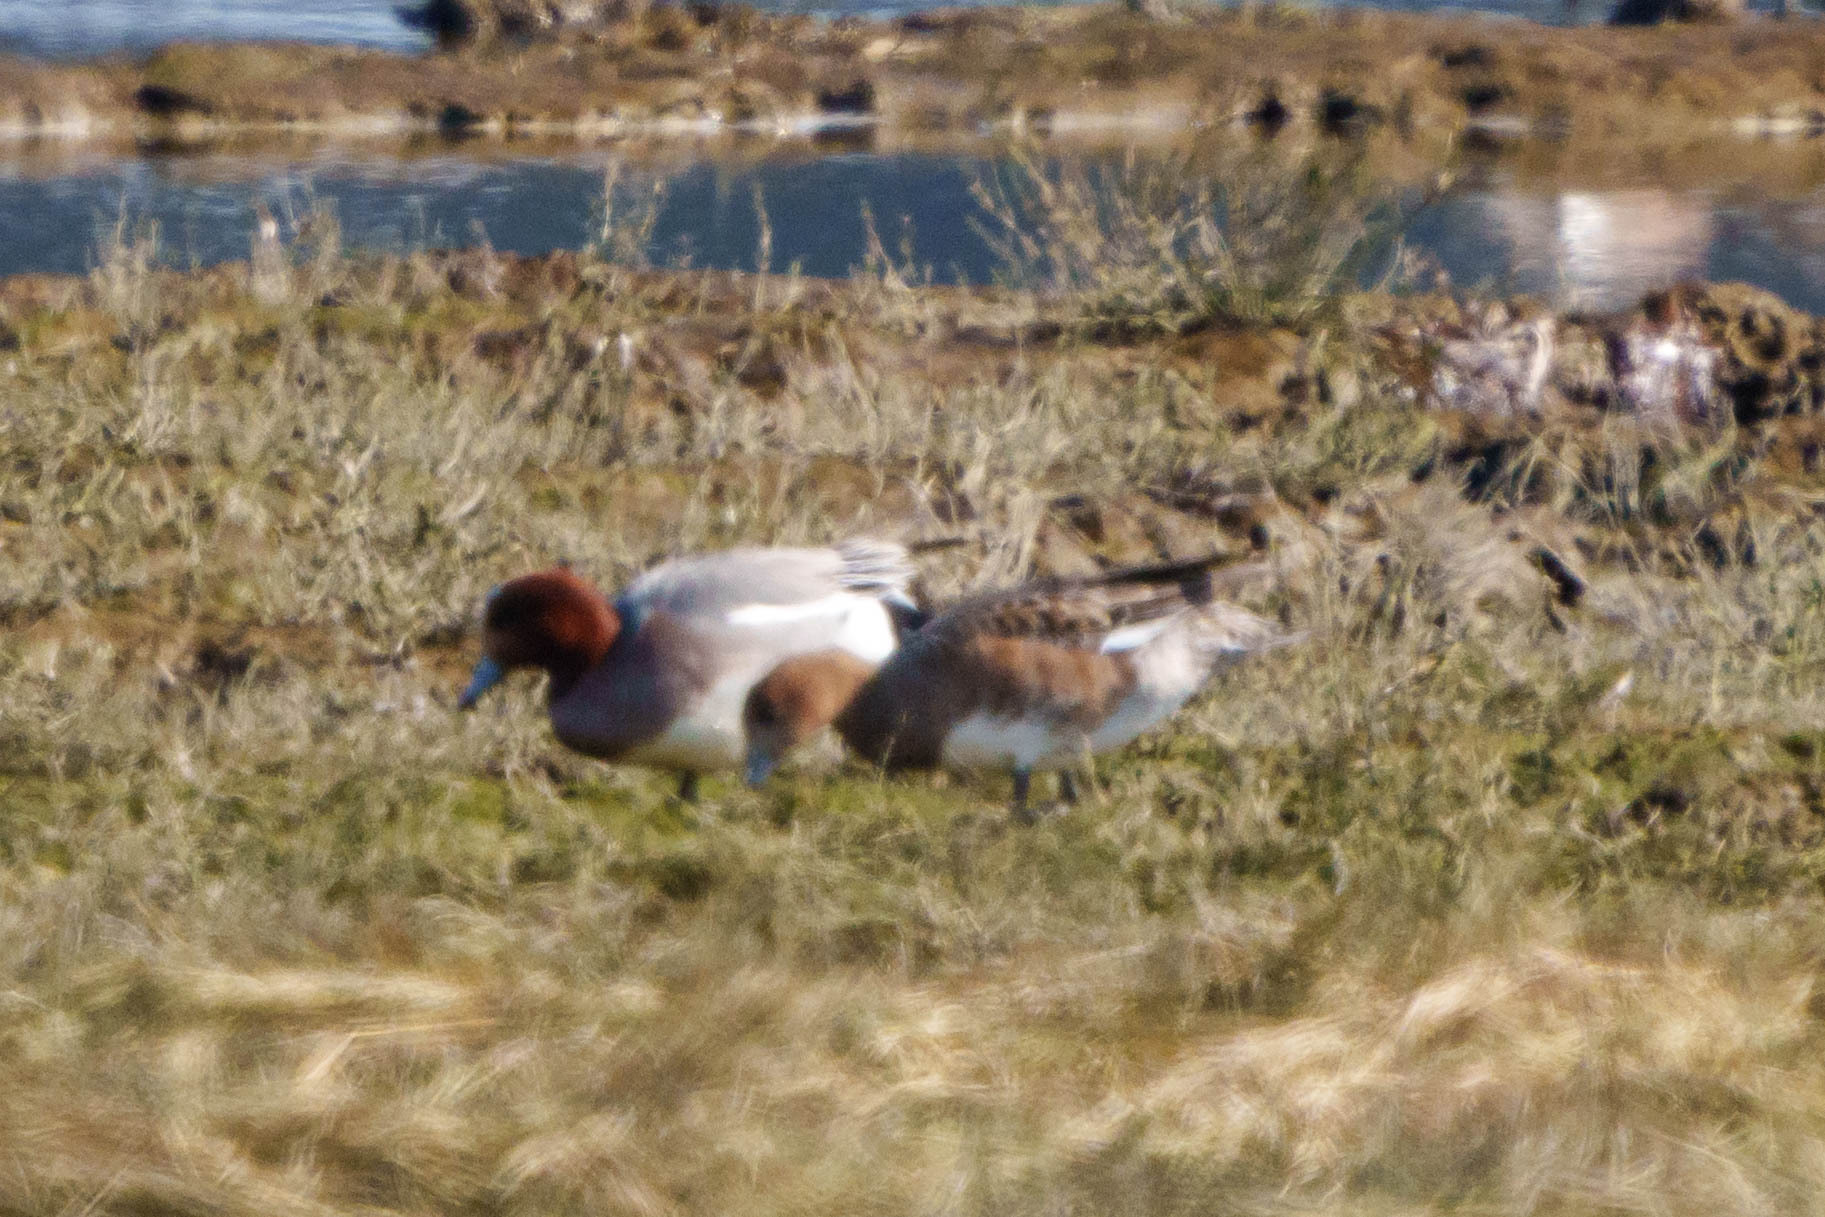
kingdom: Animalia
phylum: Chordata
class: Aves
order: Anseriformes
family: Anatidae
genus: Mareca
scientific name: Mareca penelope
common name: Eurasian wigeon
